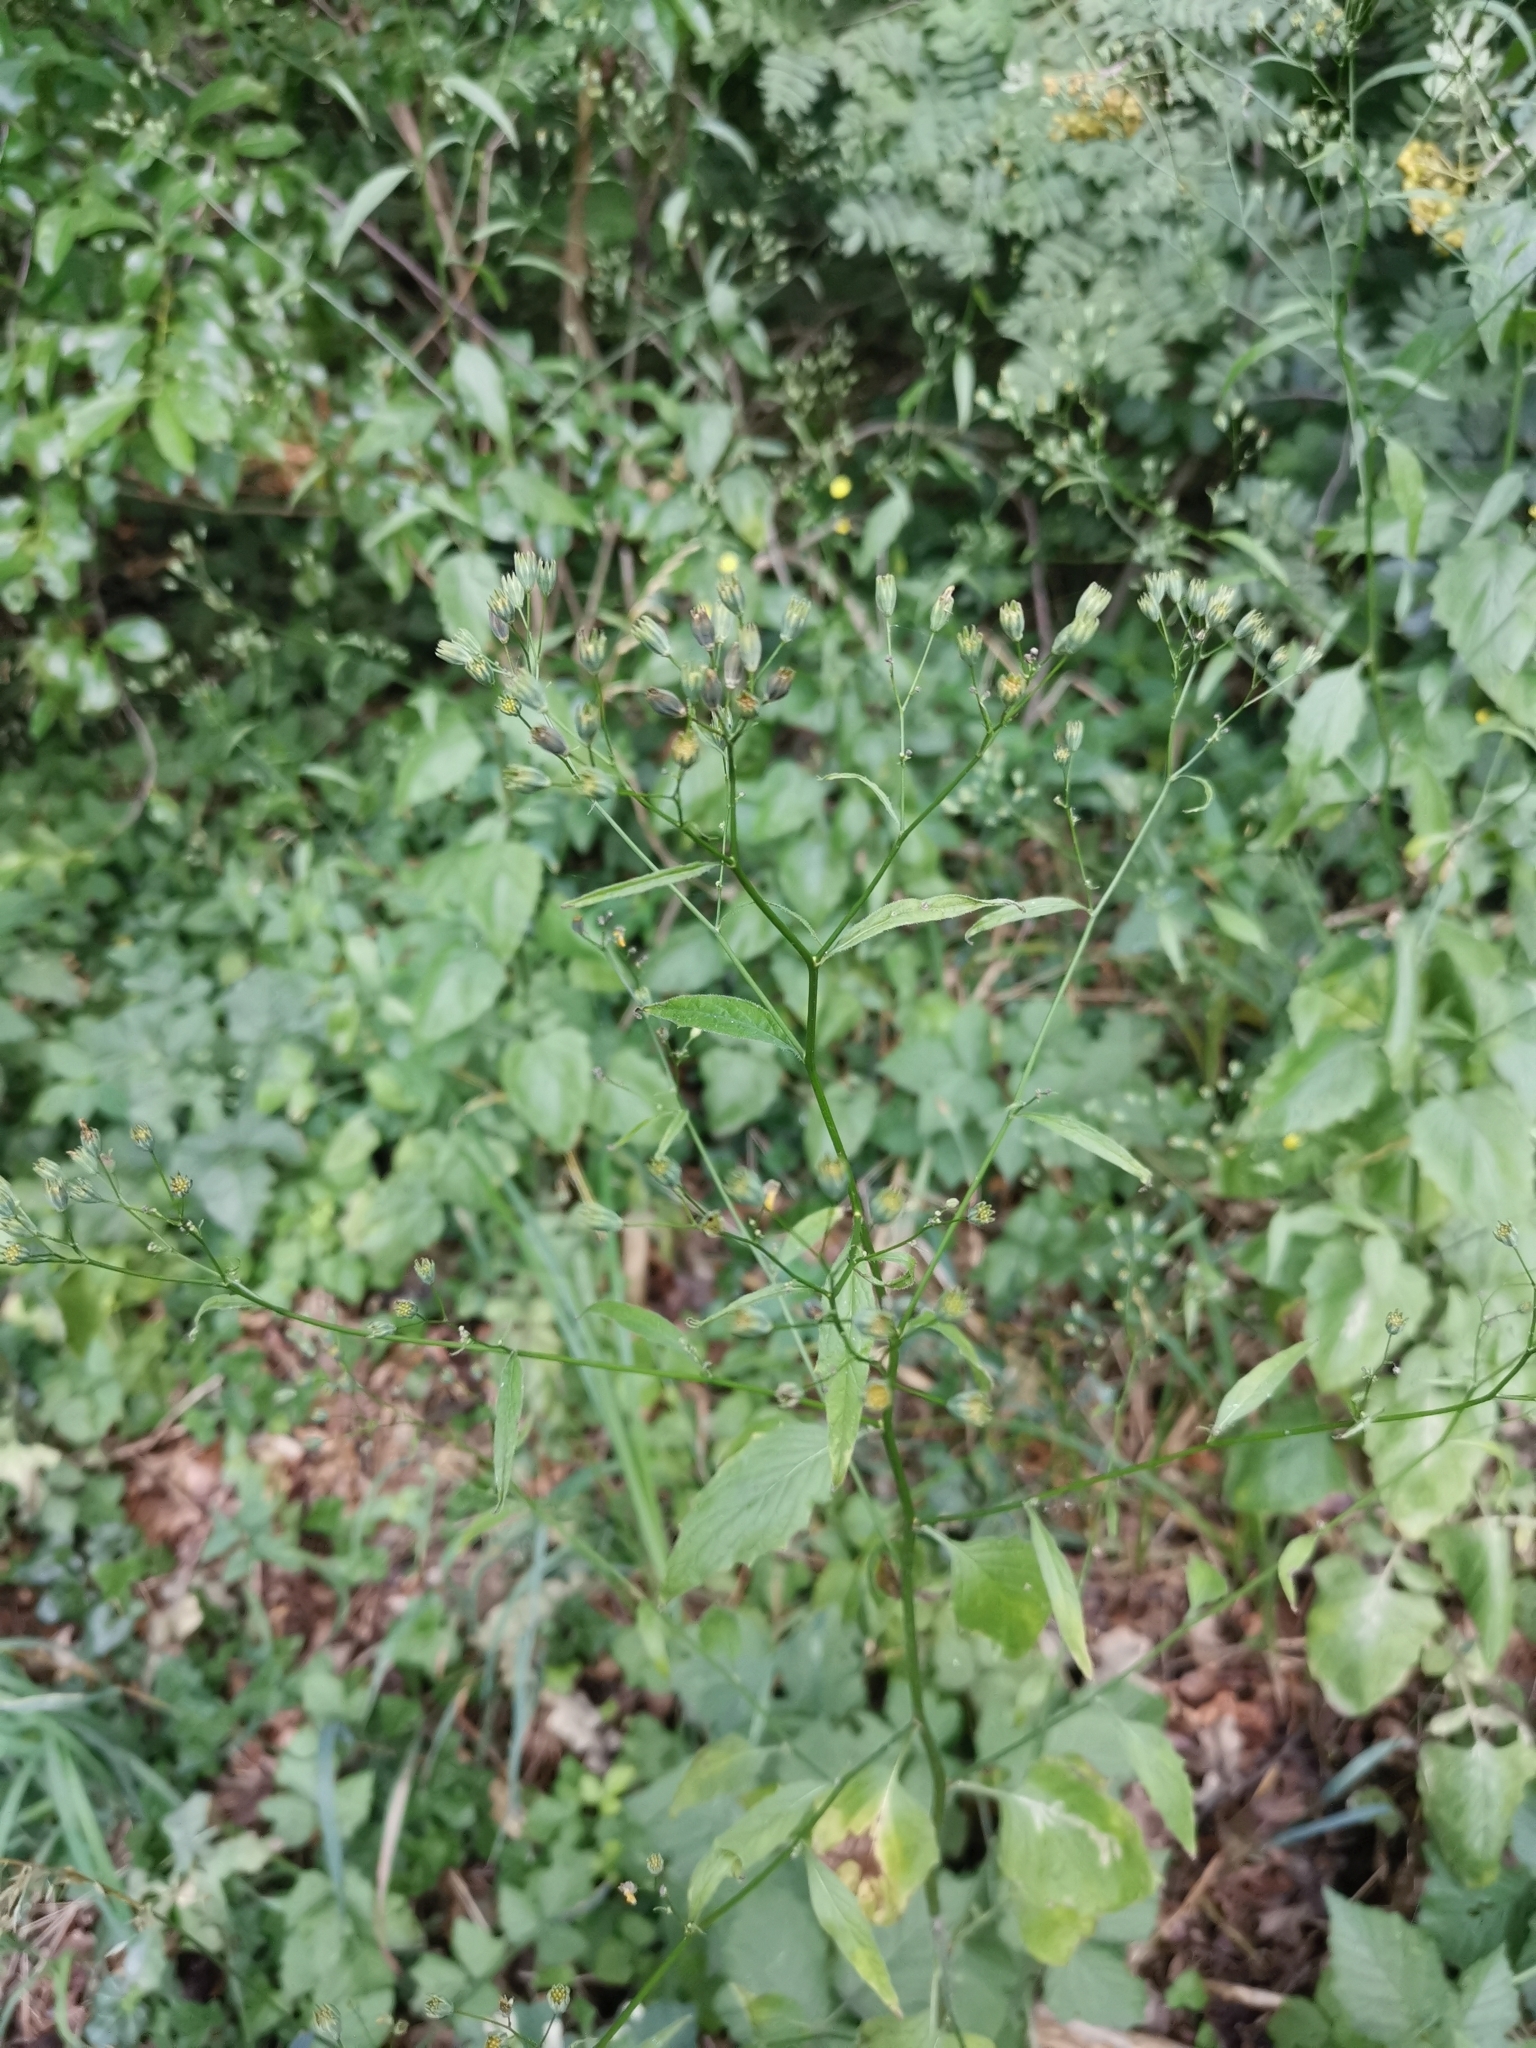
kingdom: Plantae
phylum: Tracheophyta
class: Magnoliopsida
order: Asterales
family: Asteraceae
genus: Lapsana
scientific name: Lapsana communis
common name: Nipplewort
